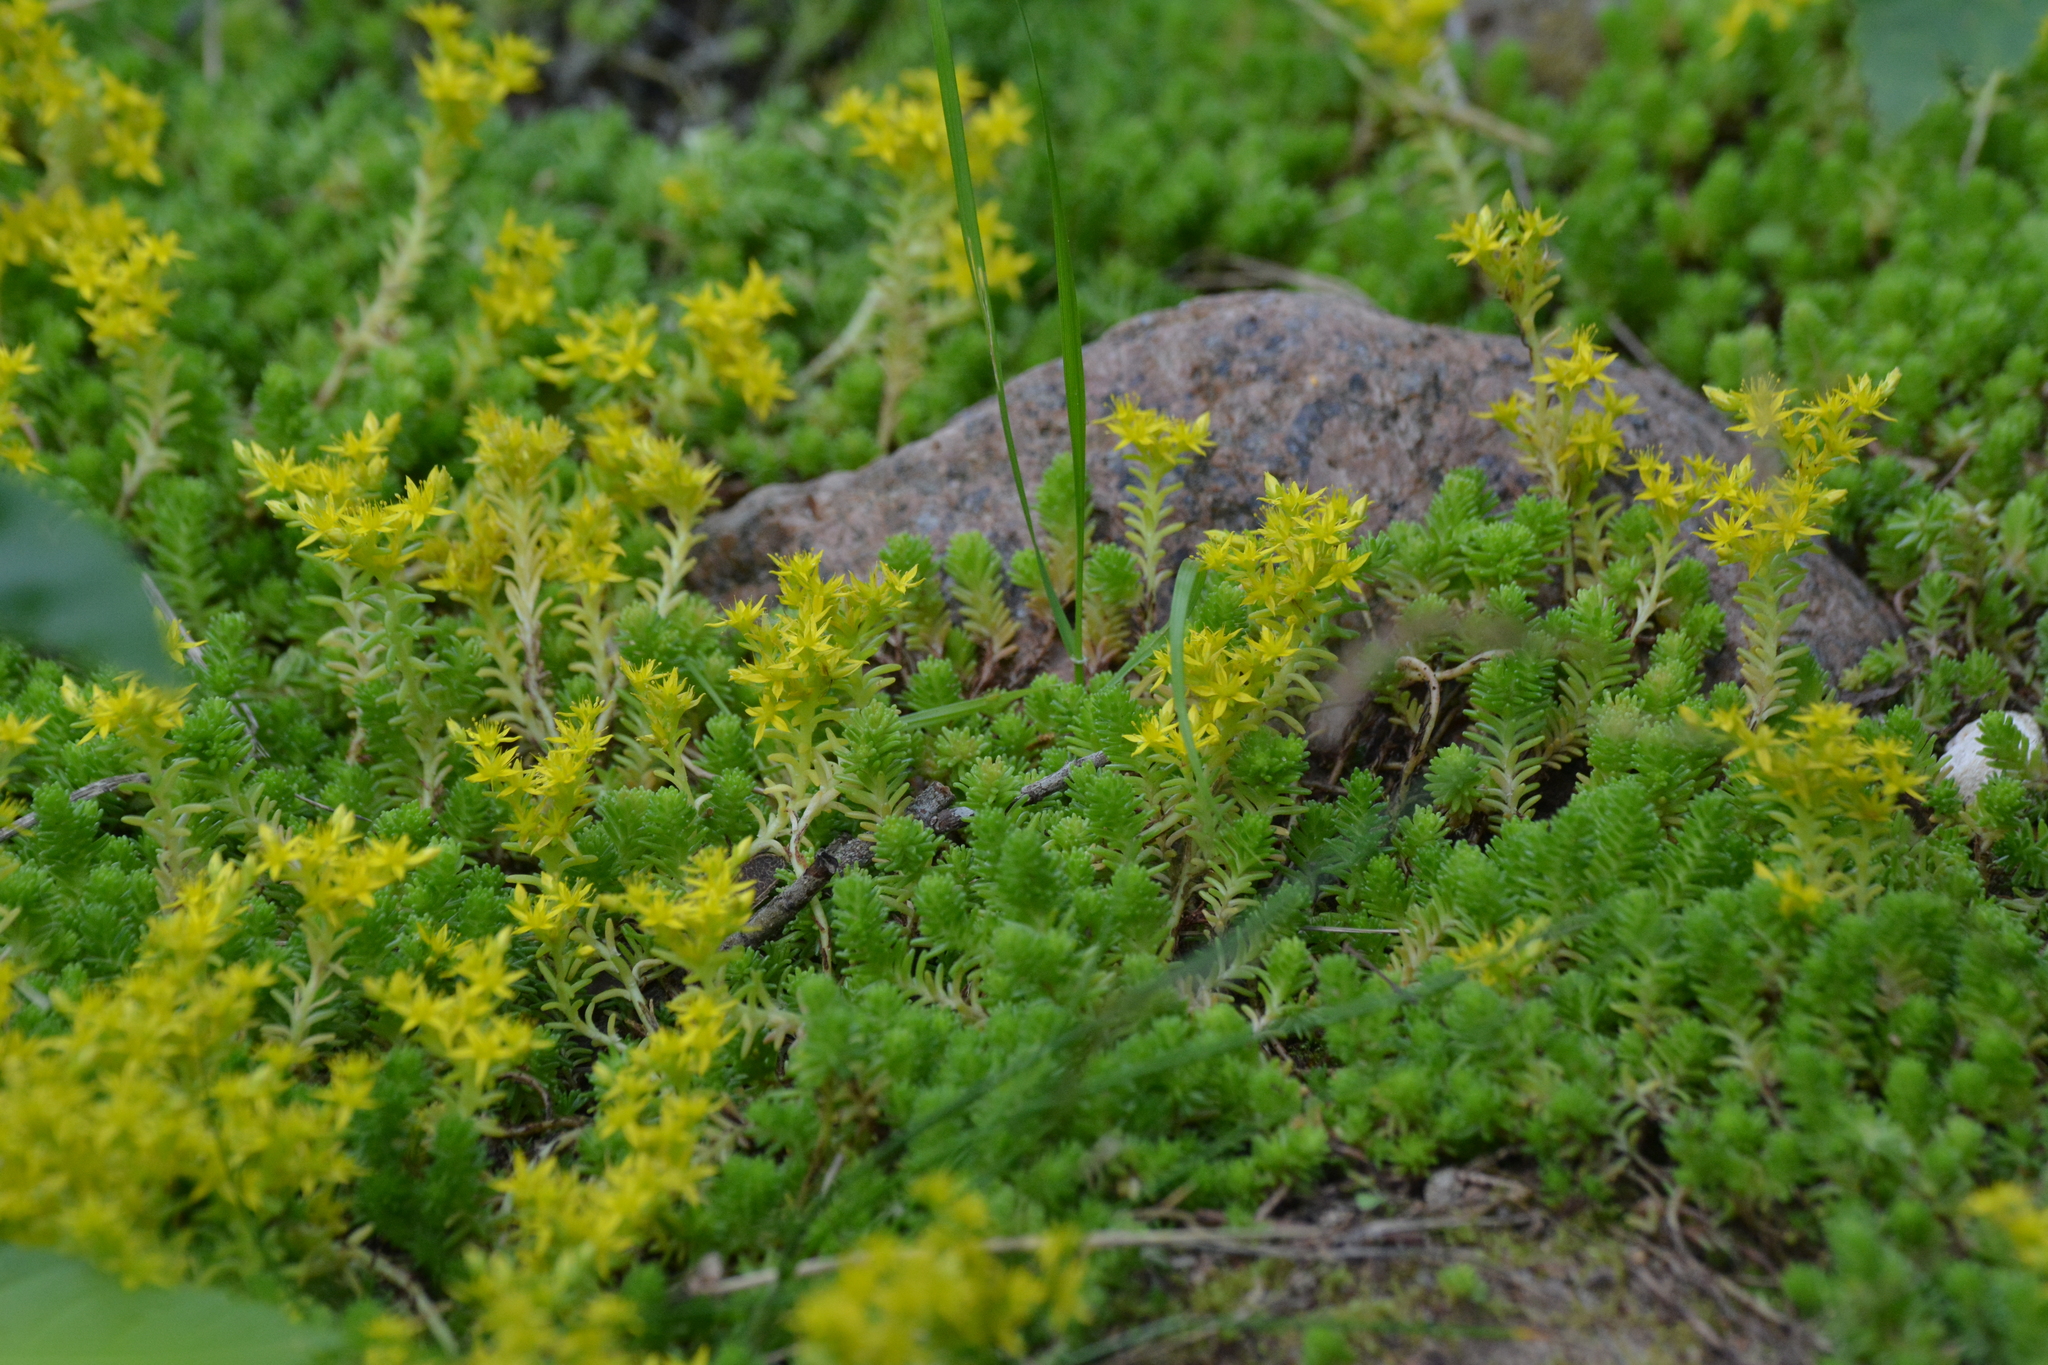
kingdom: Plantae
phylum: Tracheophyta
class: Magnoliopsida
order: Saxifragales
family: Crassulaceae
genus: Sedum
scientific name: Sedum sexangulare
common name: Tasteless stonecrop
